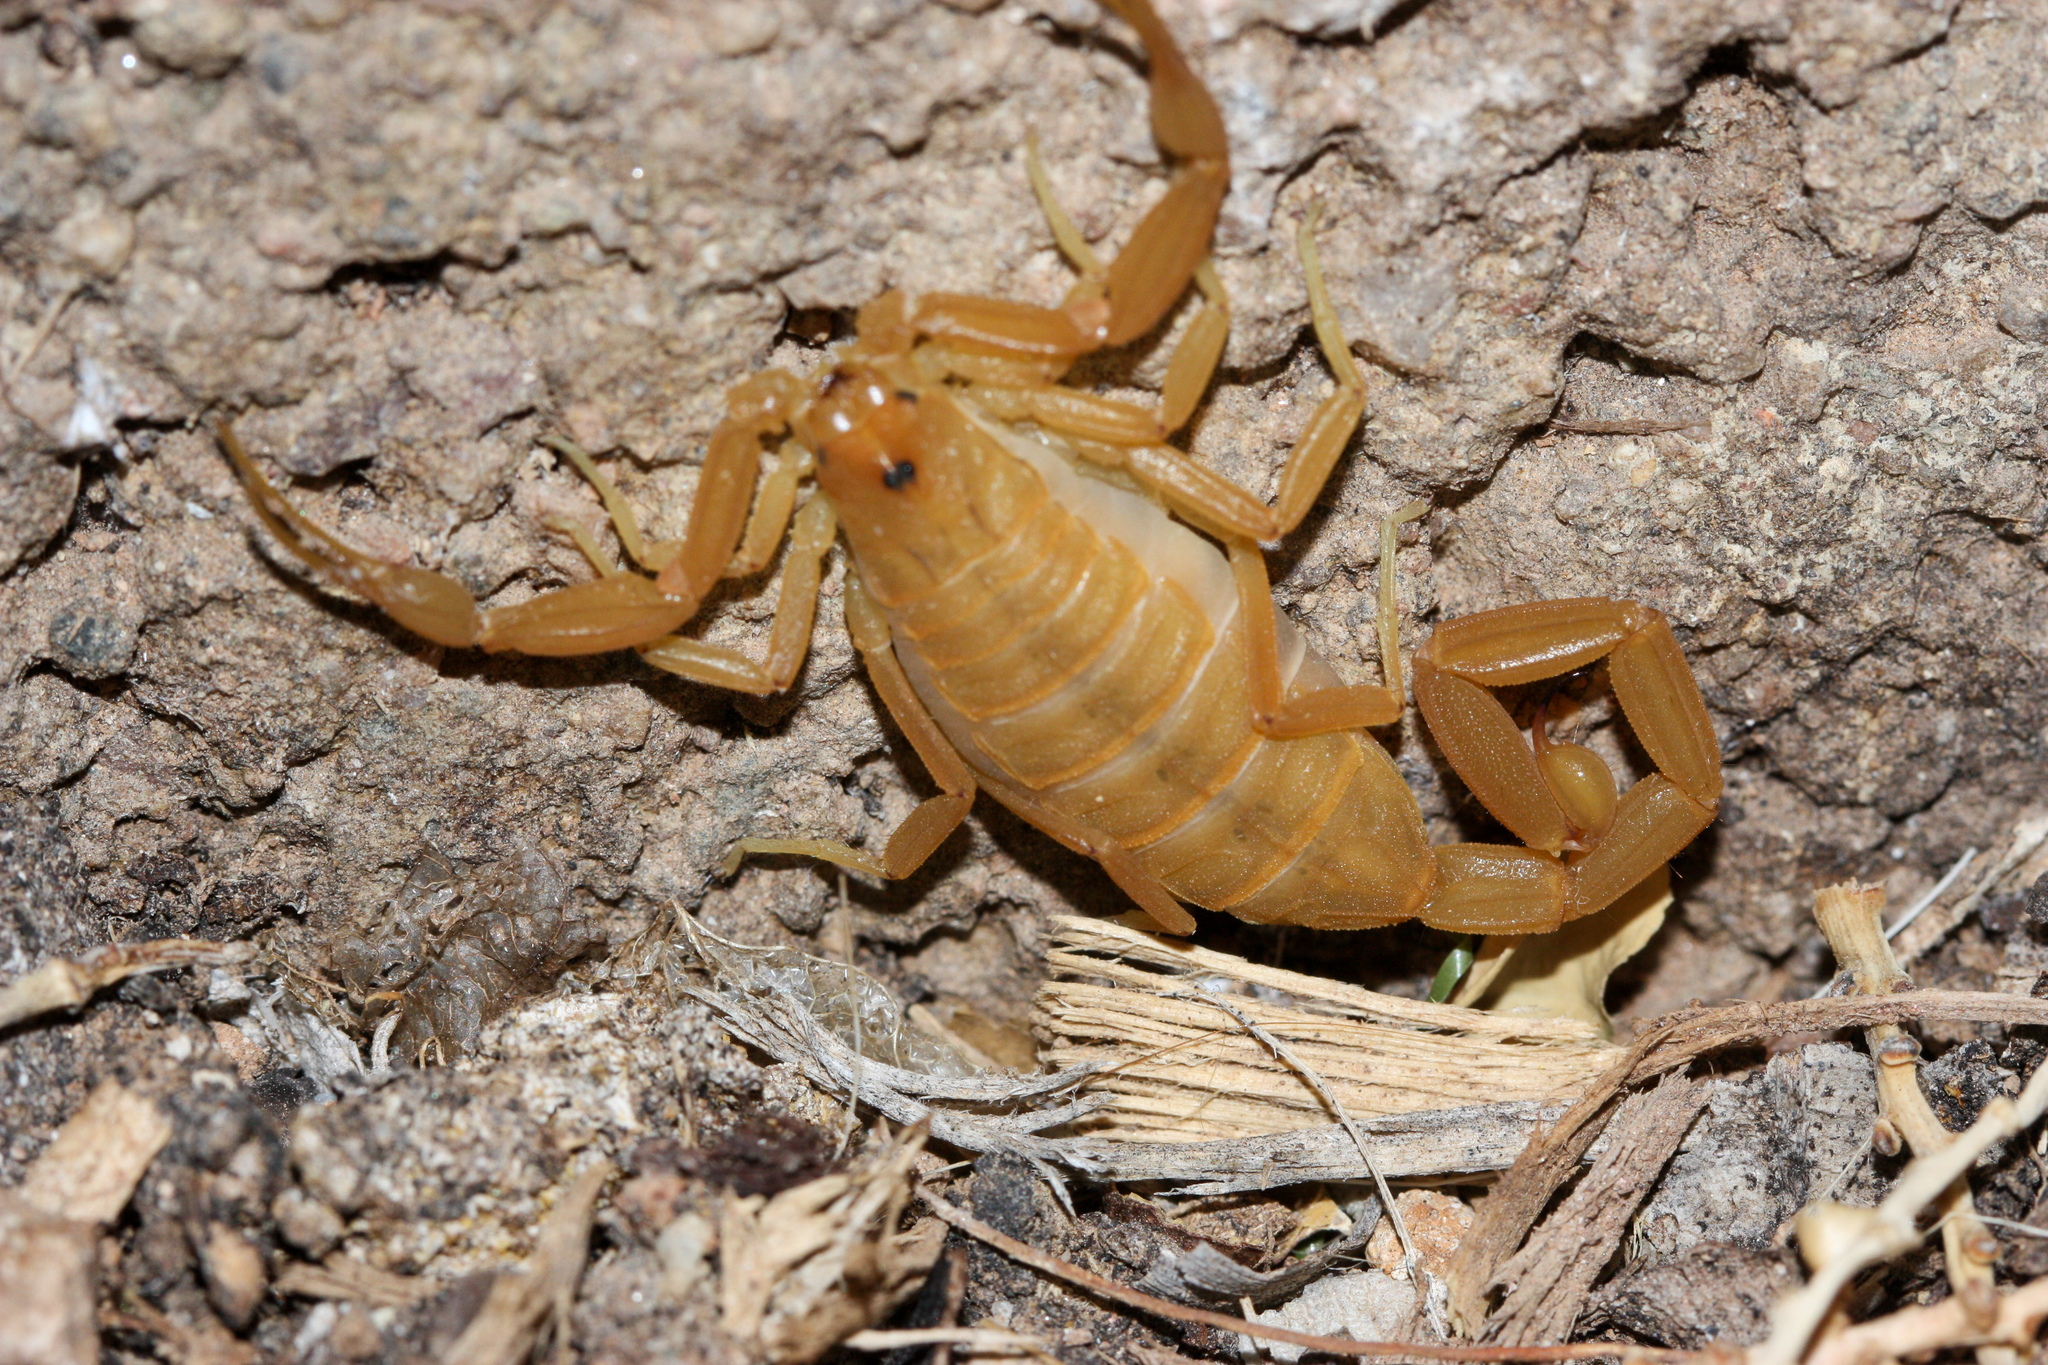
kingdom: Animalia
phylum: Arthropoda
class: Arachnida
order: Scorpiones
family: Buthidae
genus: Centruroides
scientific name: Centruroides sculpturatus
